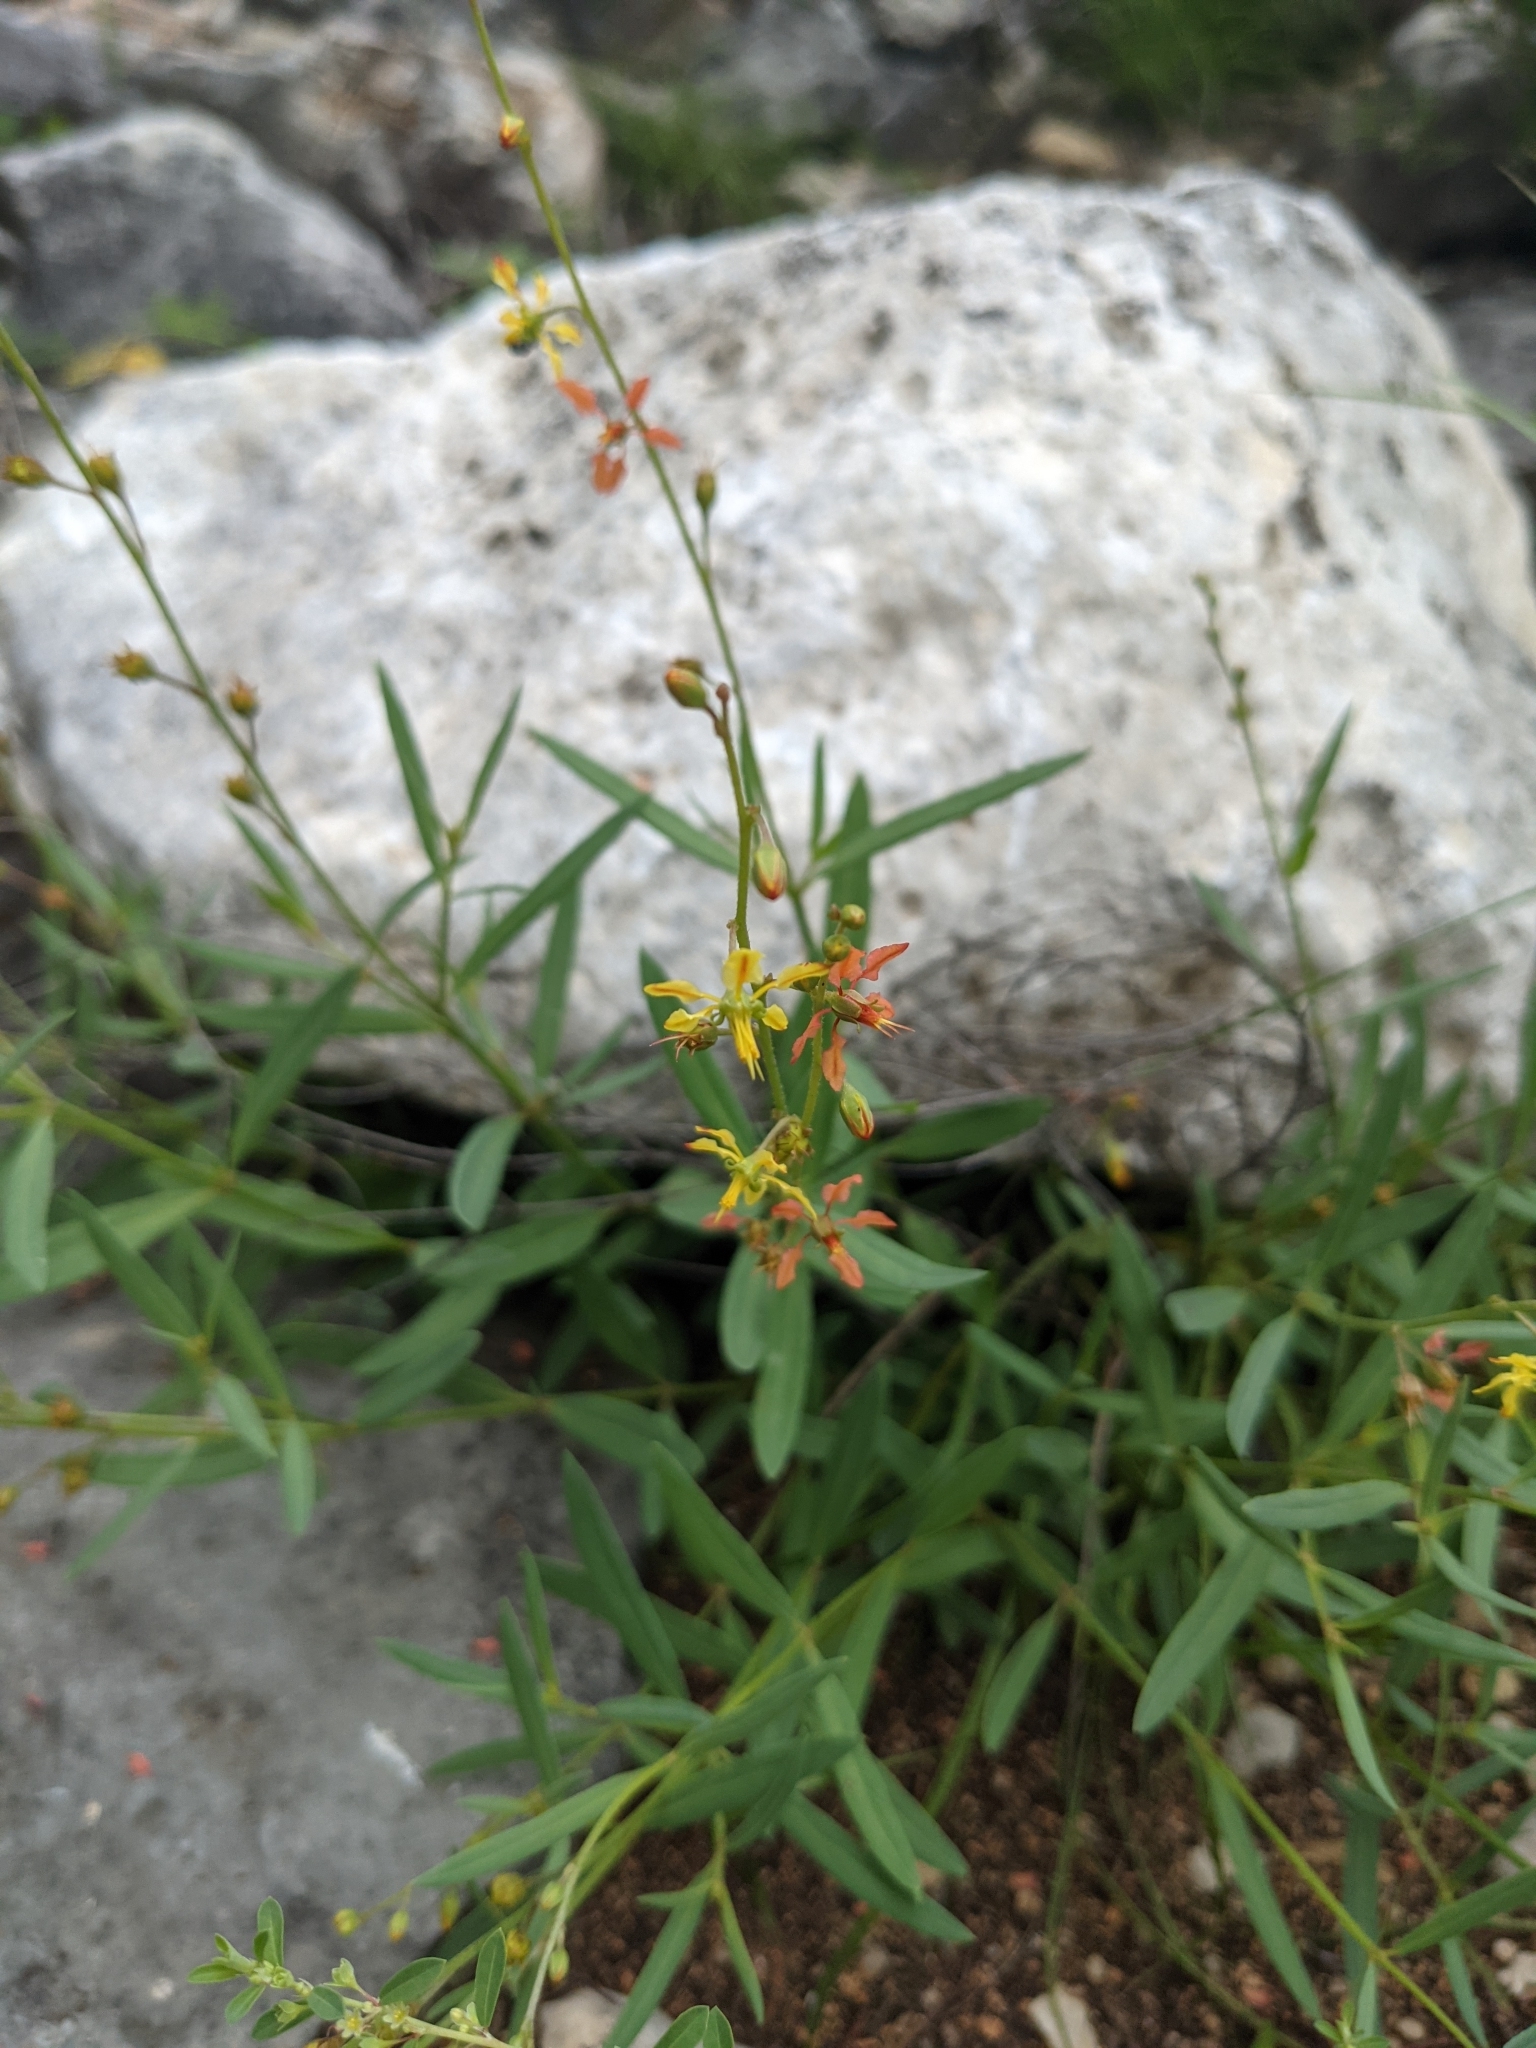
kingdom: Plantae
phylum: Tracheophyta
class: Magnoliopsida
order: Malpighiales
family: Malpighiaceae
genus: Galphimia
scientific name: Galphimia angustifolia
